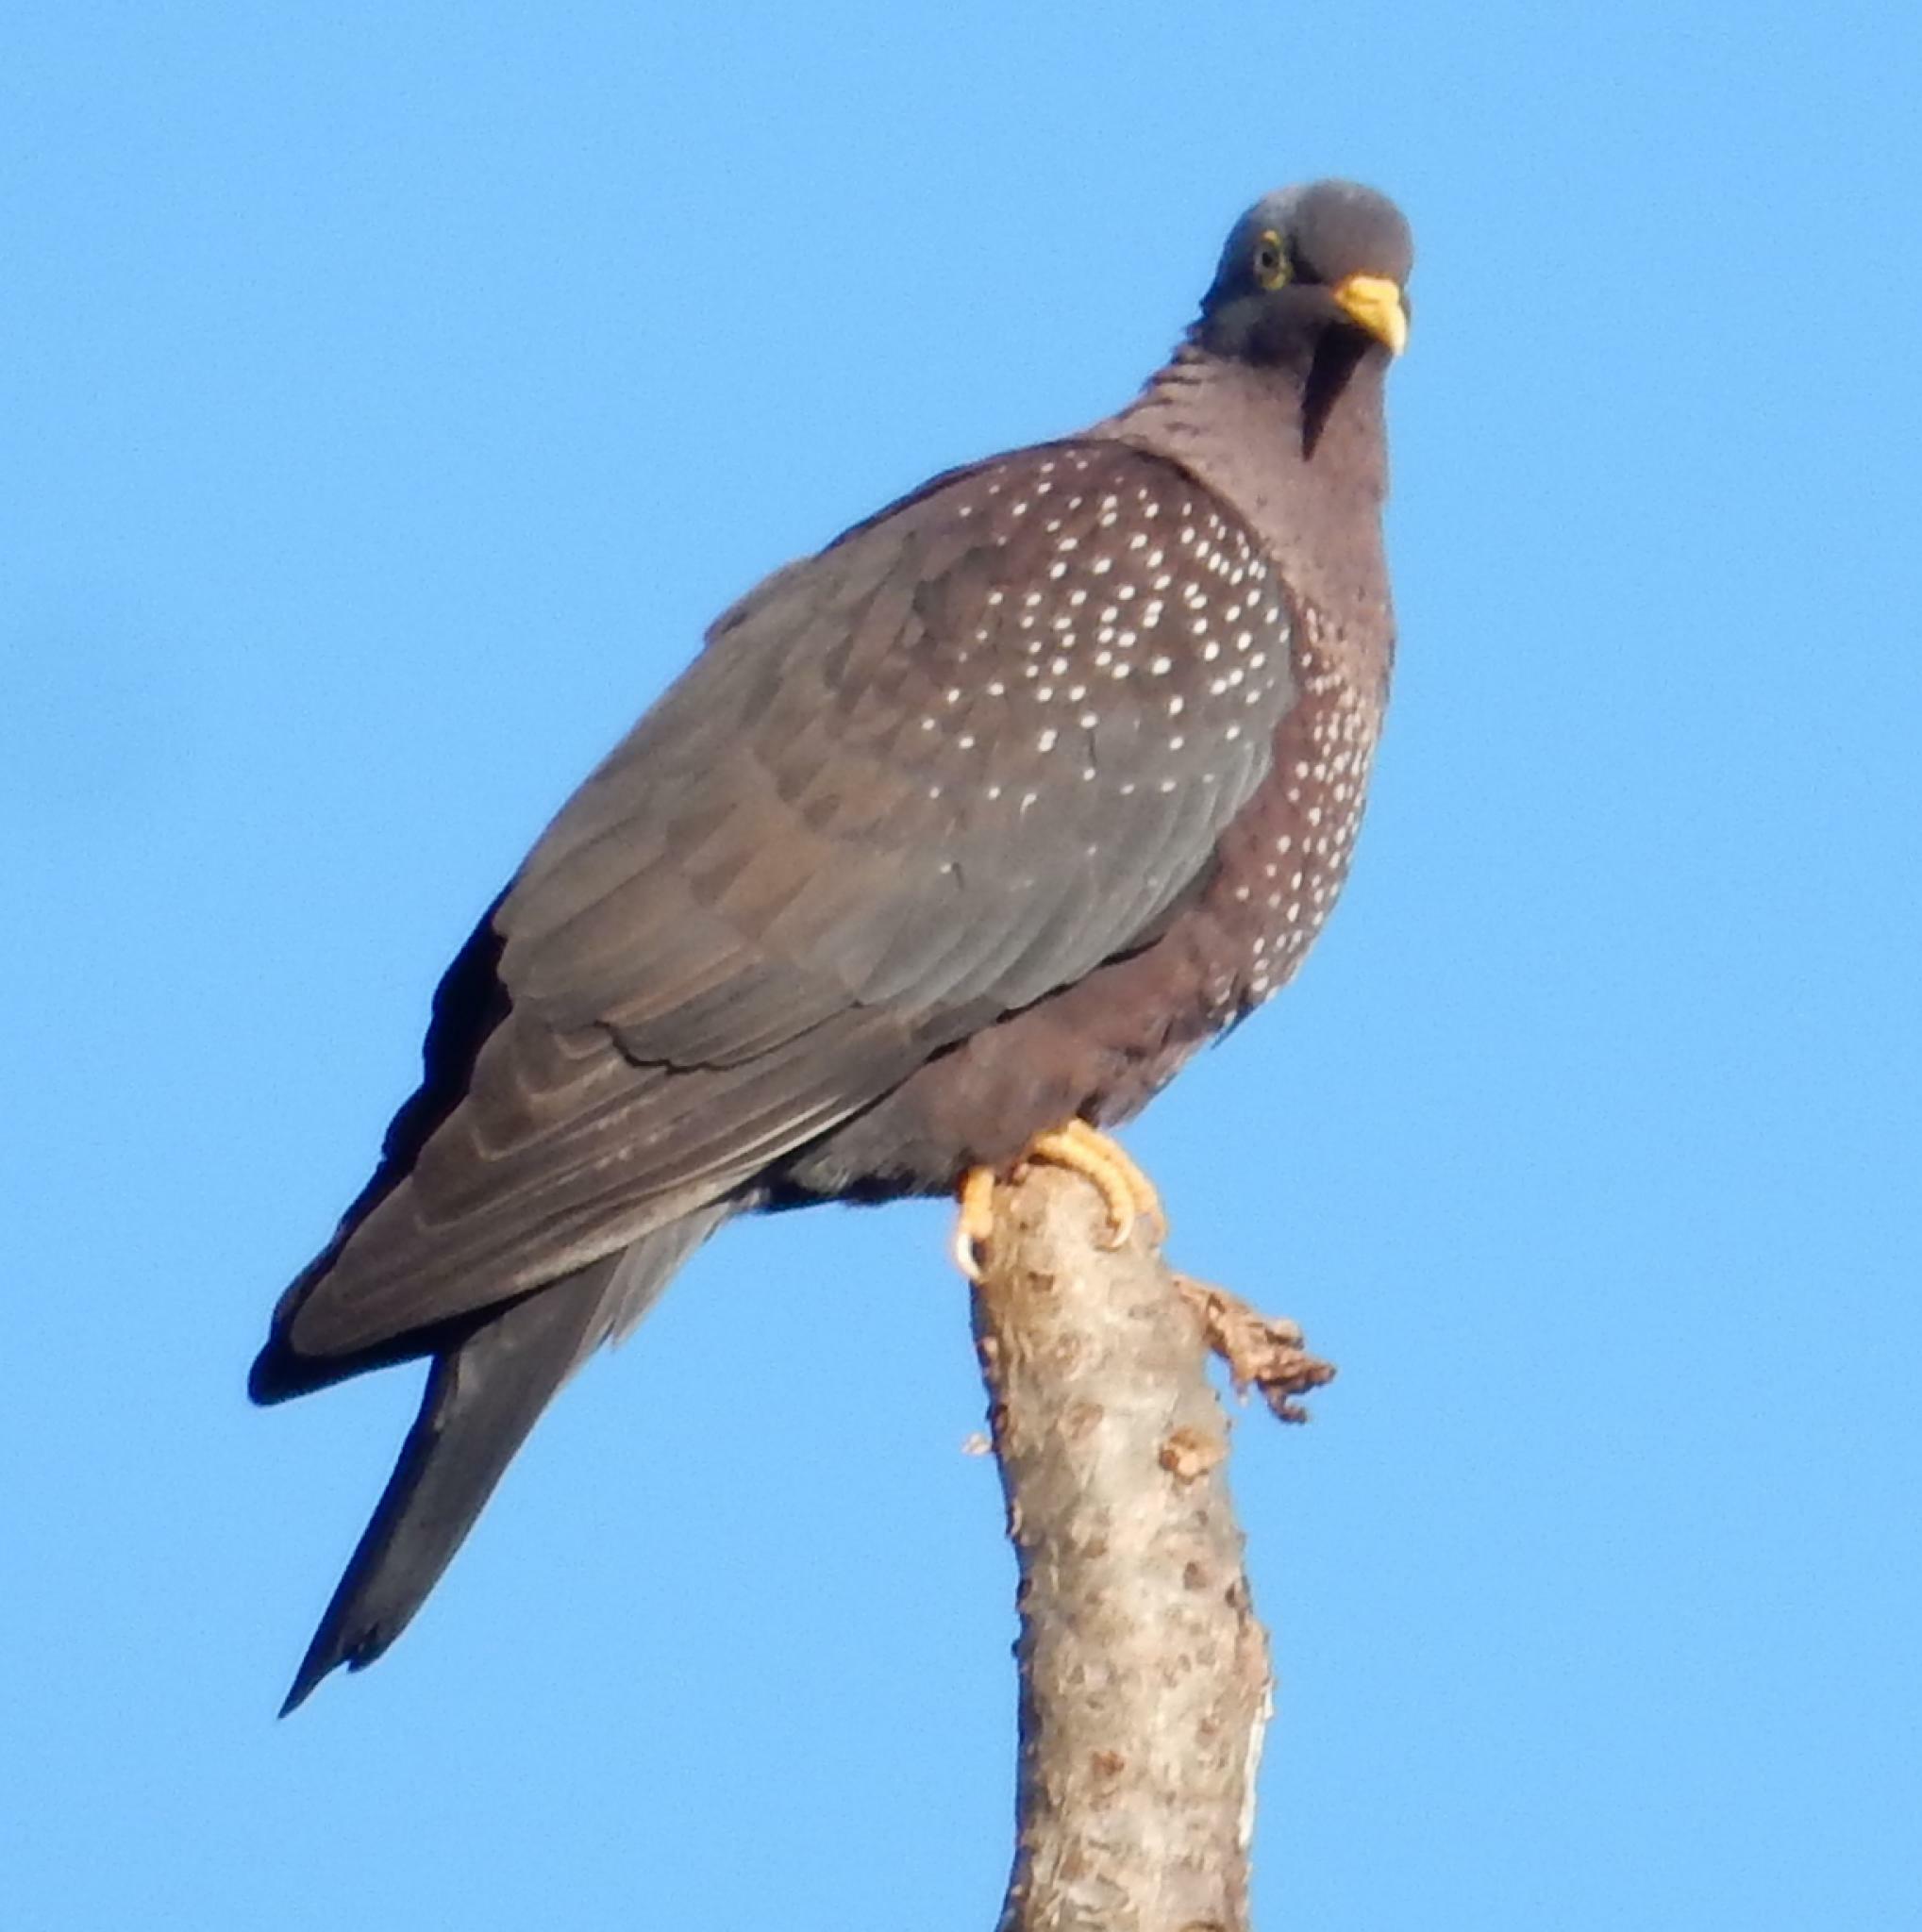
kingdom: Animalia
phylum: Chordata
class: Aves
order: Columbiformes
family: Columbidae
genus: Columba
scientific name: Columba arquatrix
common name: African olive pigeon
